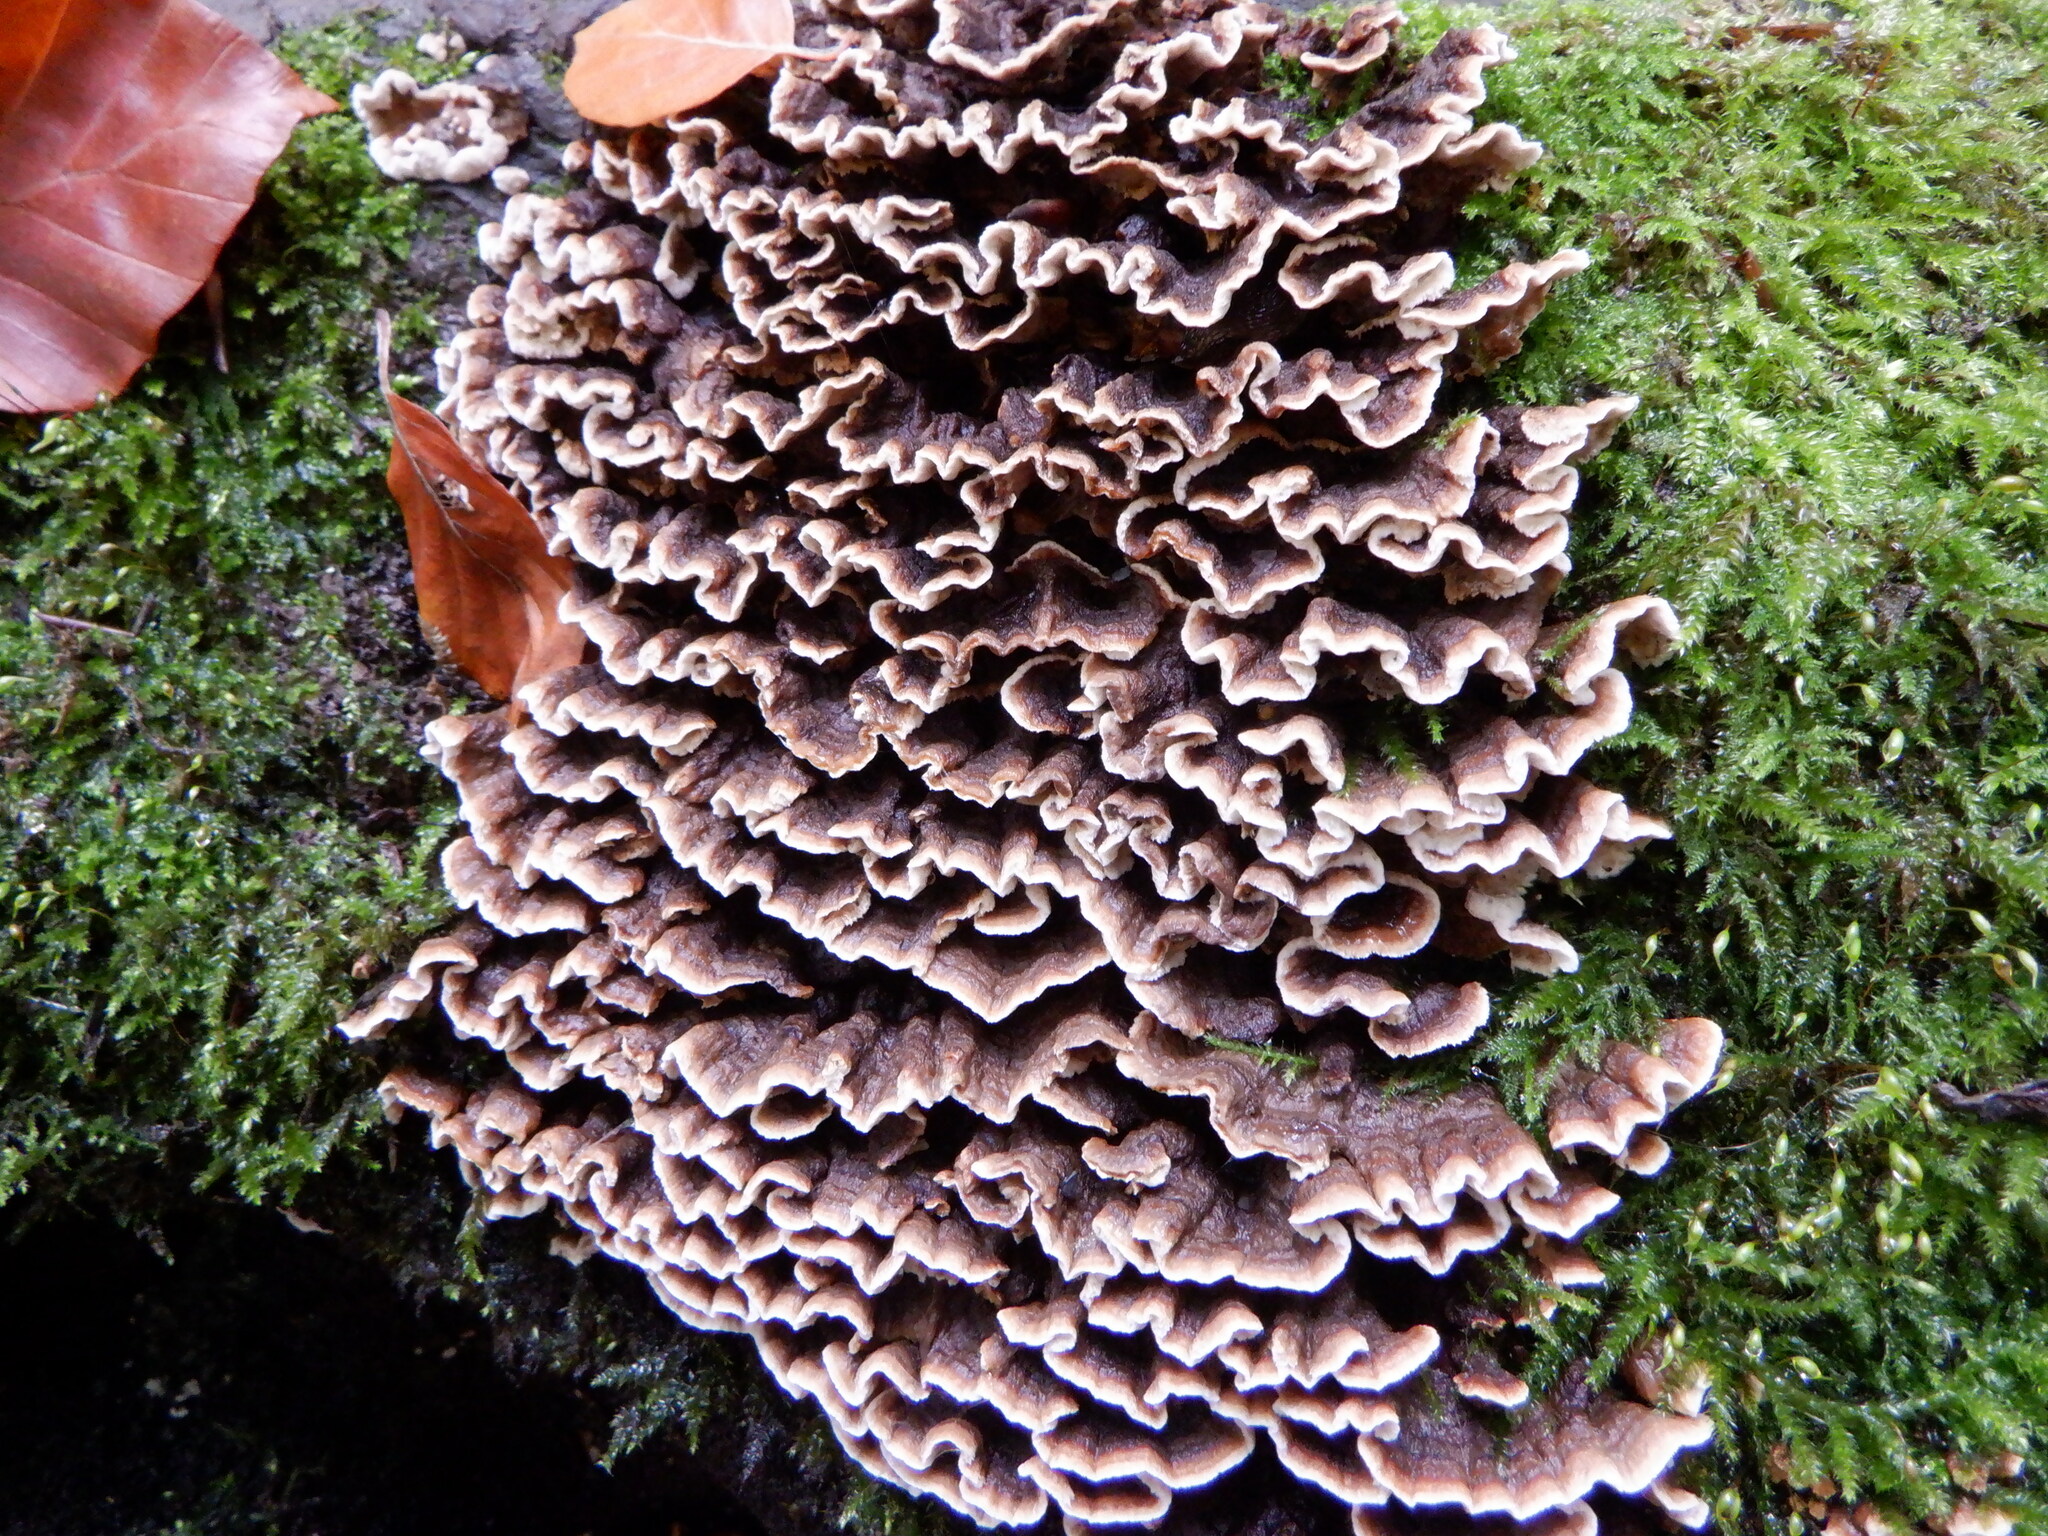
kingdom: Fungi
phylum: Basidiomycota
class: Agaricomycetes
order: Agaricales
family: Cyphellaceae
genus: Chondrostereum
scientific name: Chondrostereum purpureum
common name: Silver leaf disease
